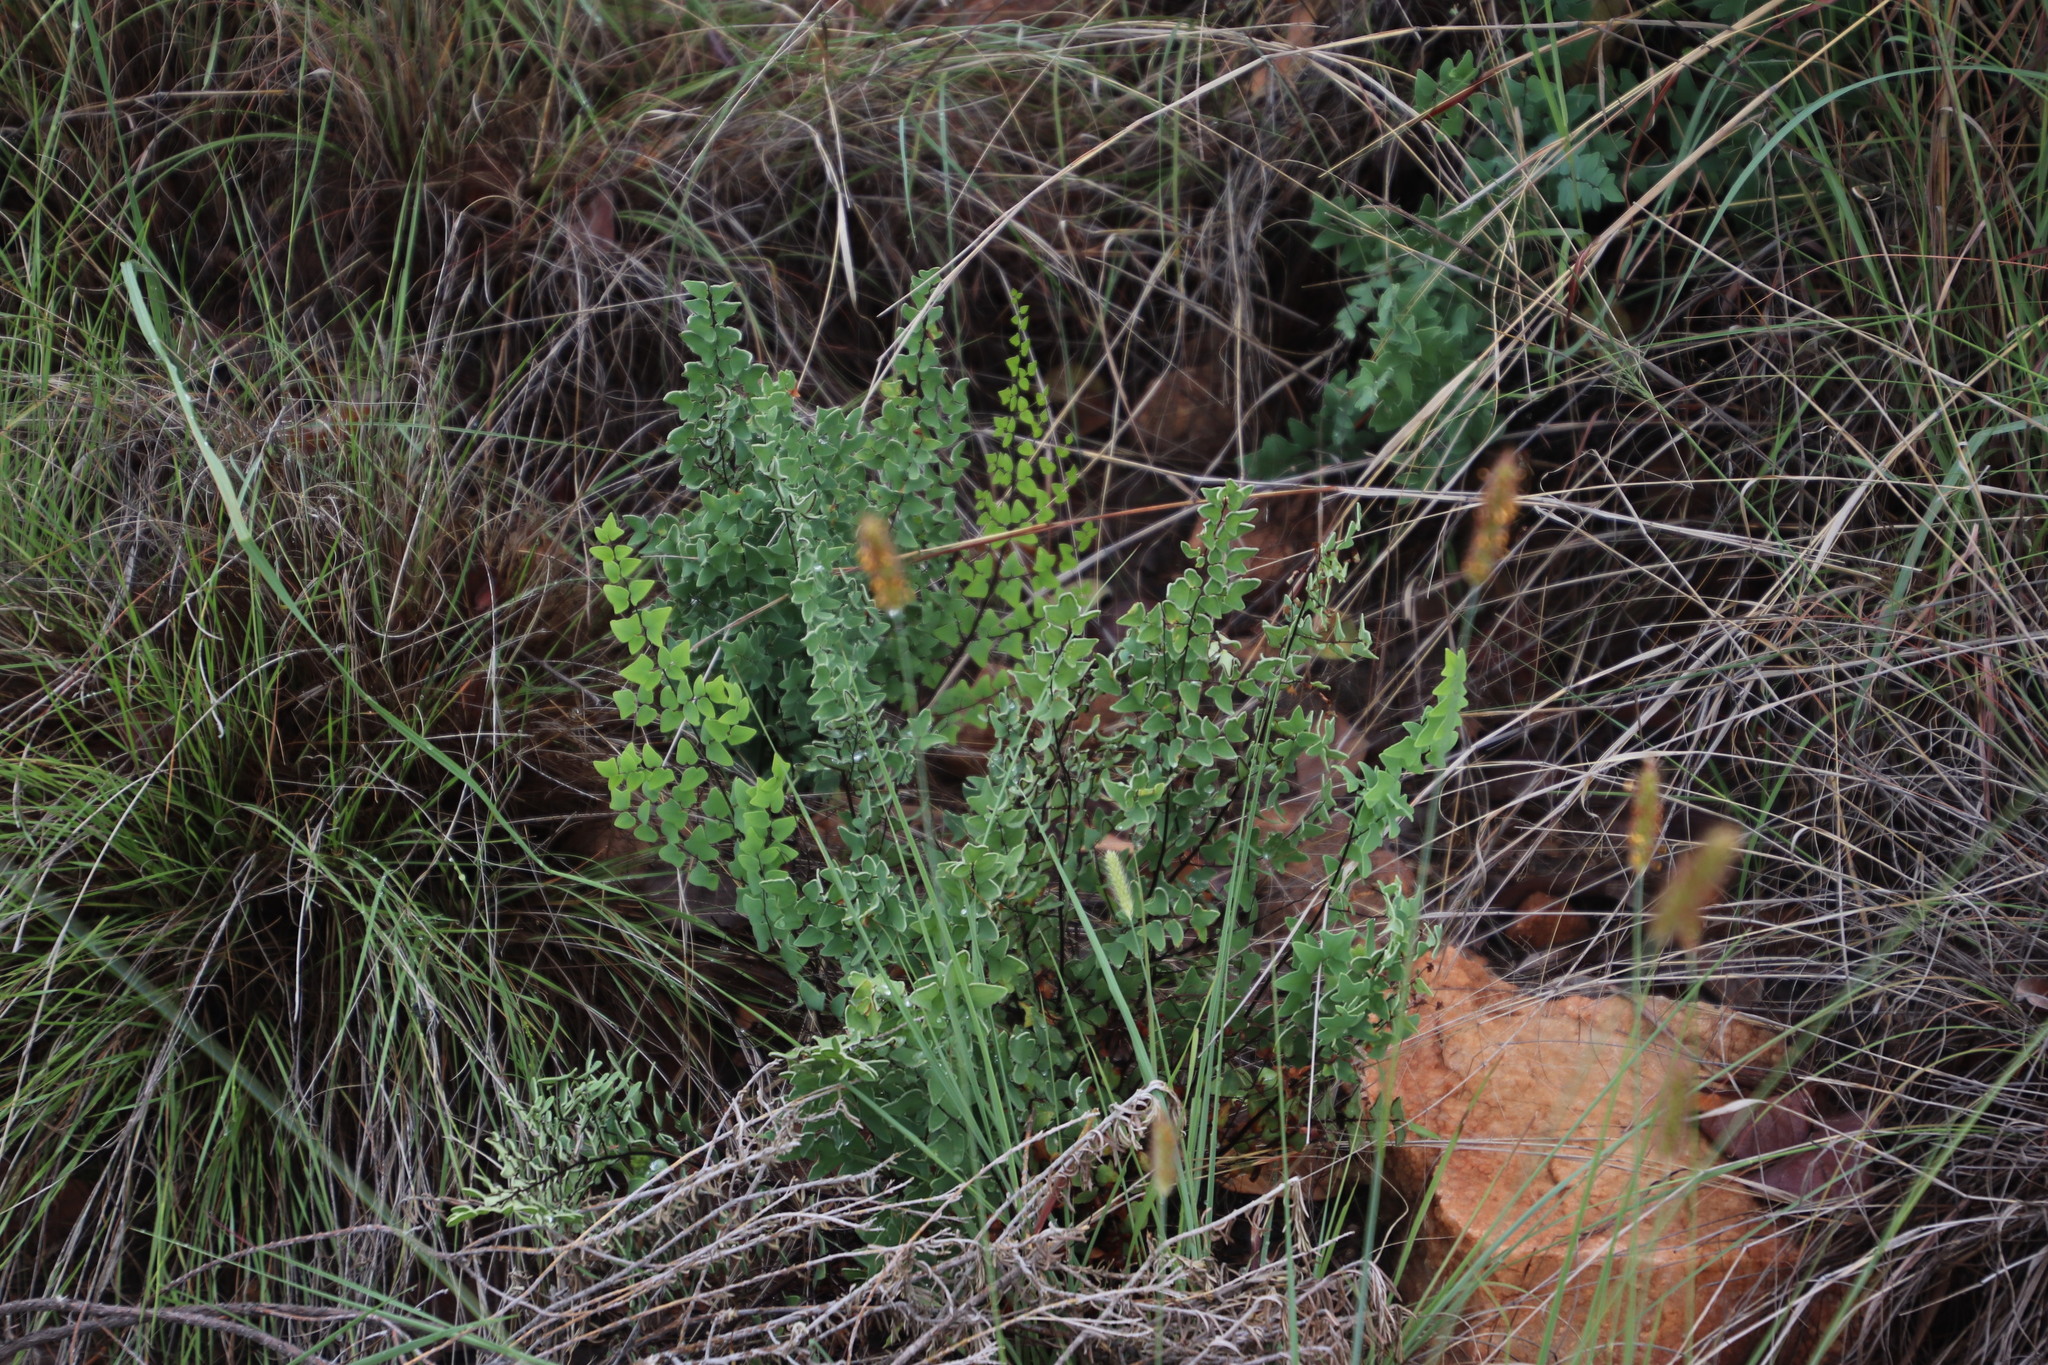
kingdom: Plantae
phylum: Tracheophyta
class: Polypodiopsida
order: Polypodiales
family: Pteridaceae
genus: Pellaea
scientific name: Pellaea calomelanos
